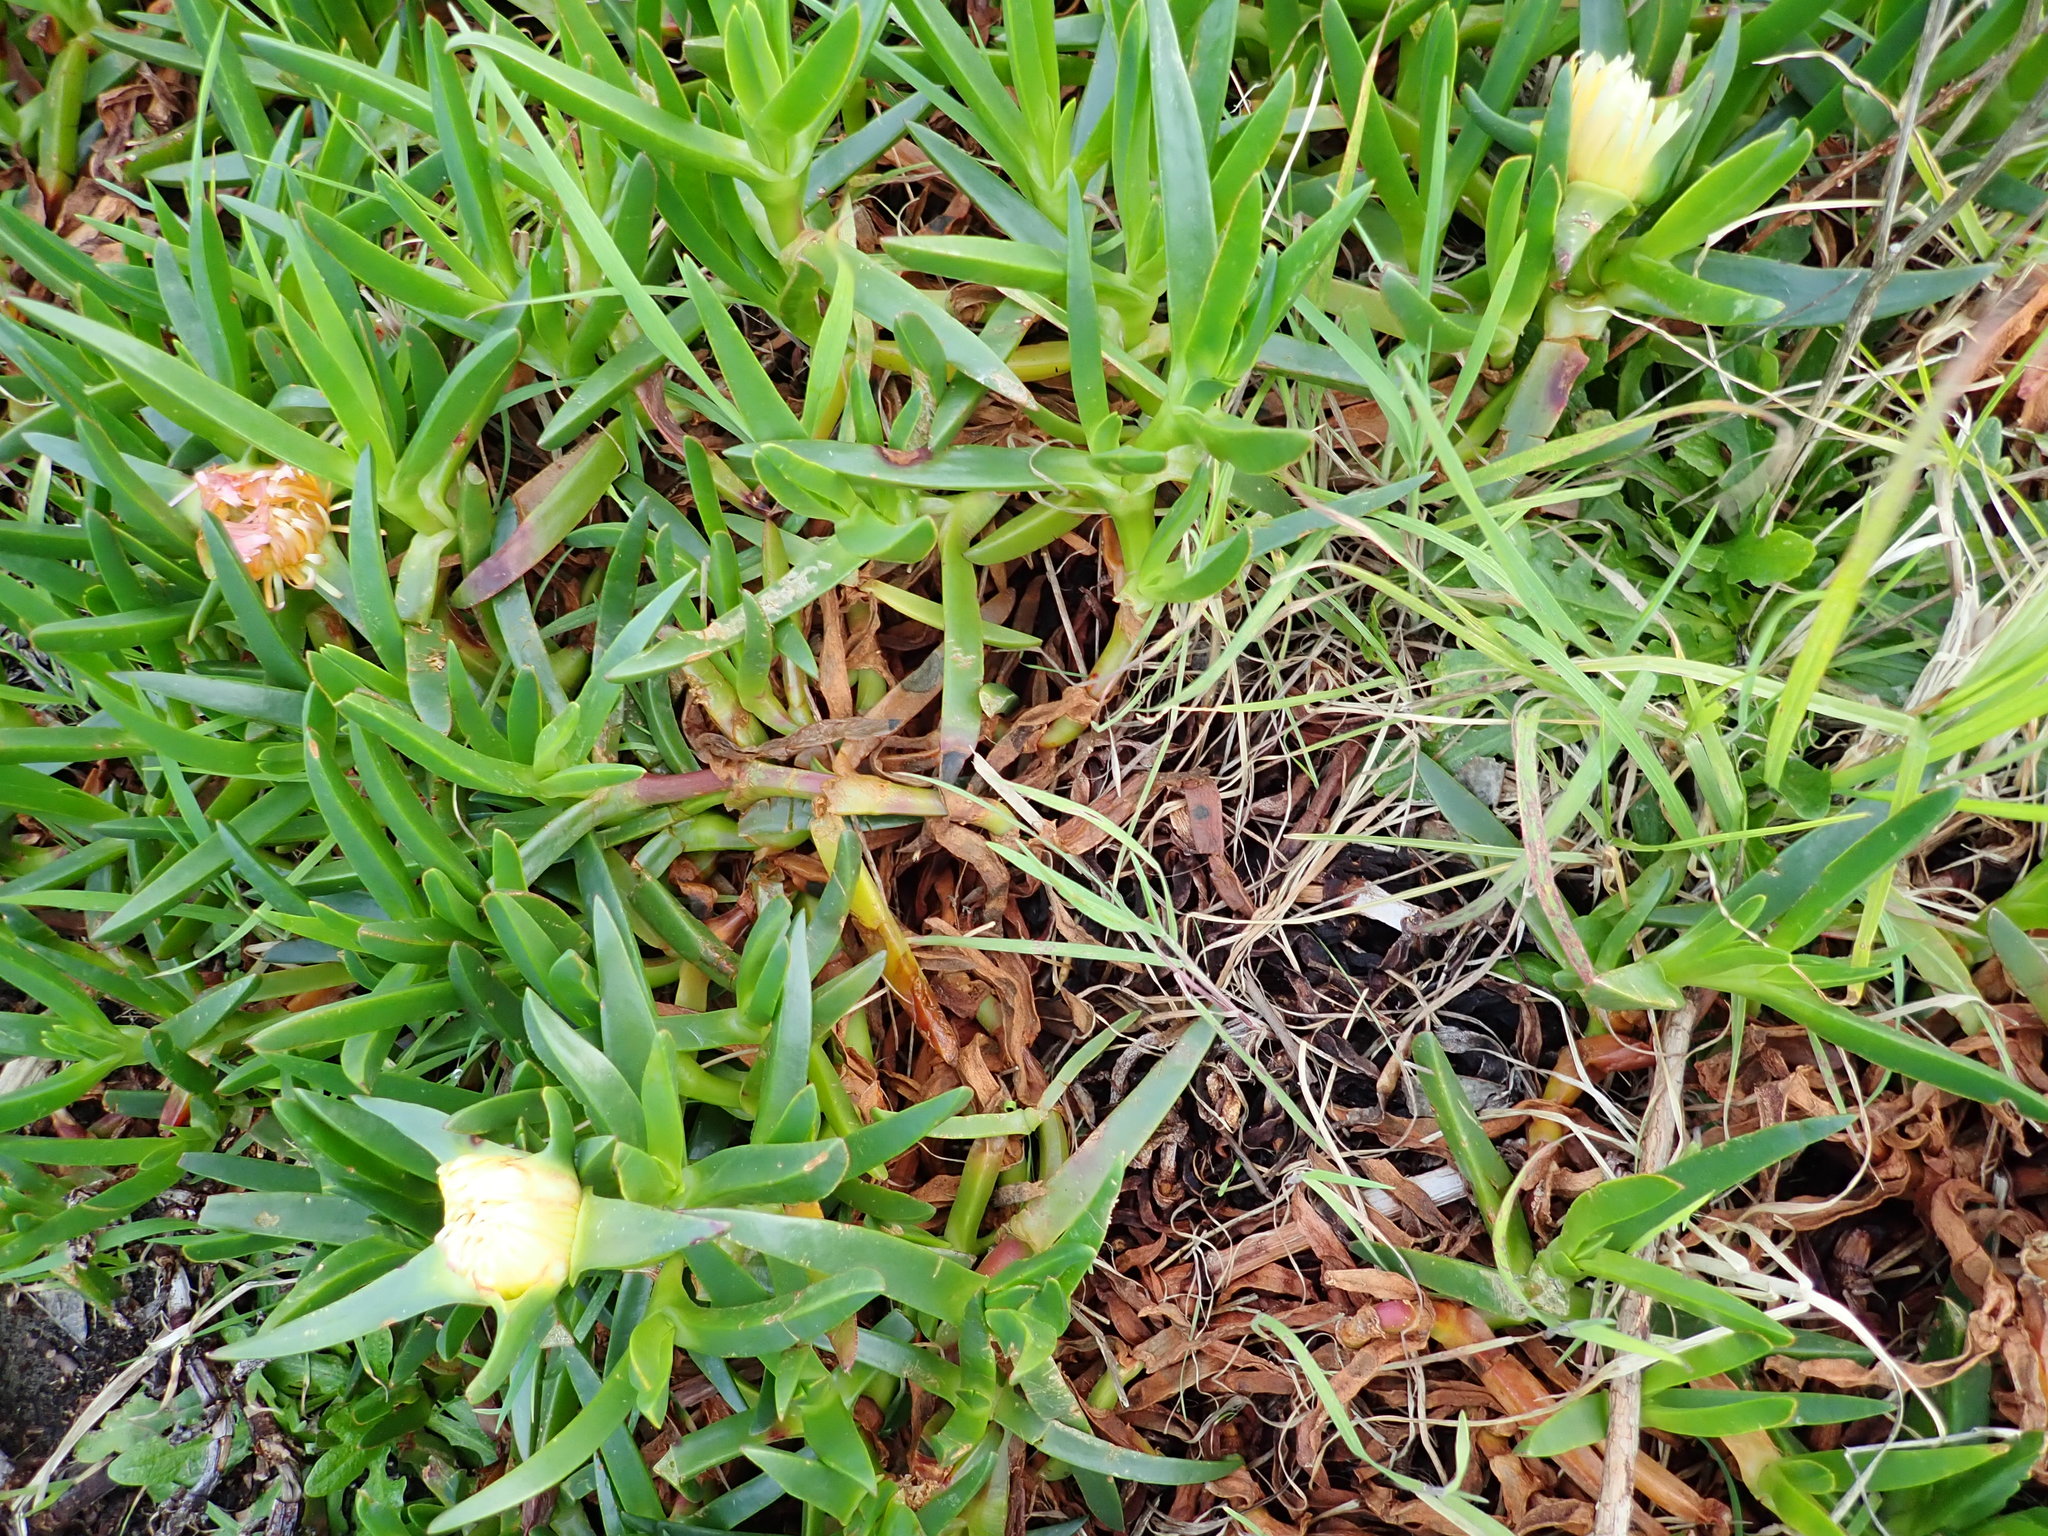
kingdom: Plantae
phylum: Tracheophyta
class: Magnoliopsida
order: Caryophyllales
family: Aizoaceae
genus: Carpobrotus
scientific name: Carpobrotus edulis
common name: Hottentot-fig
